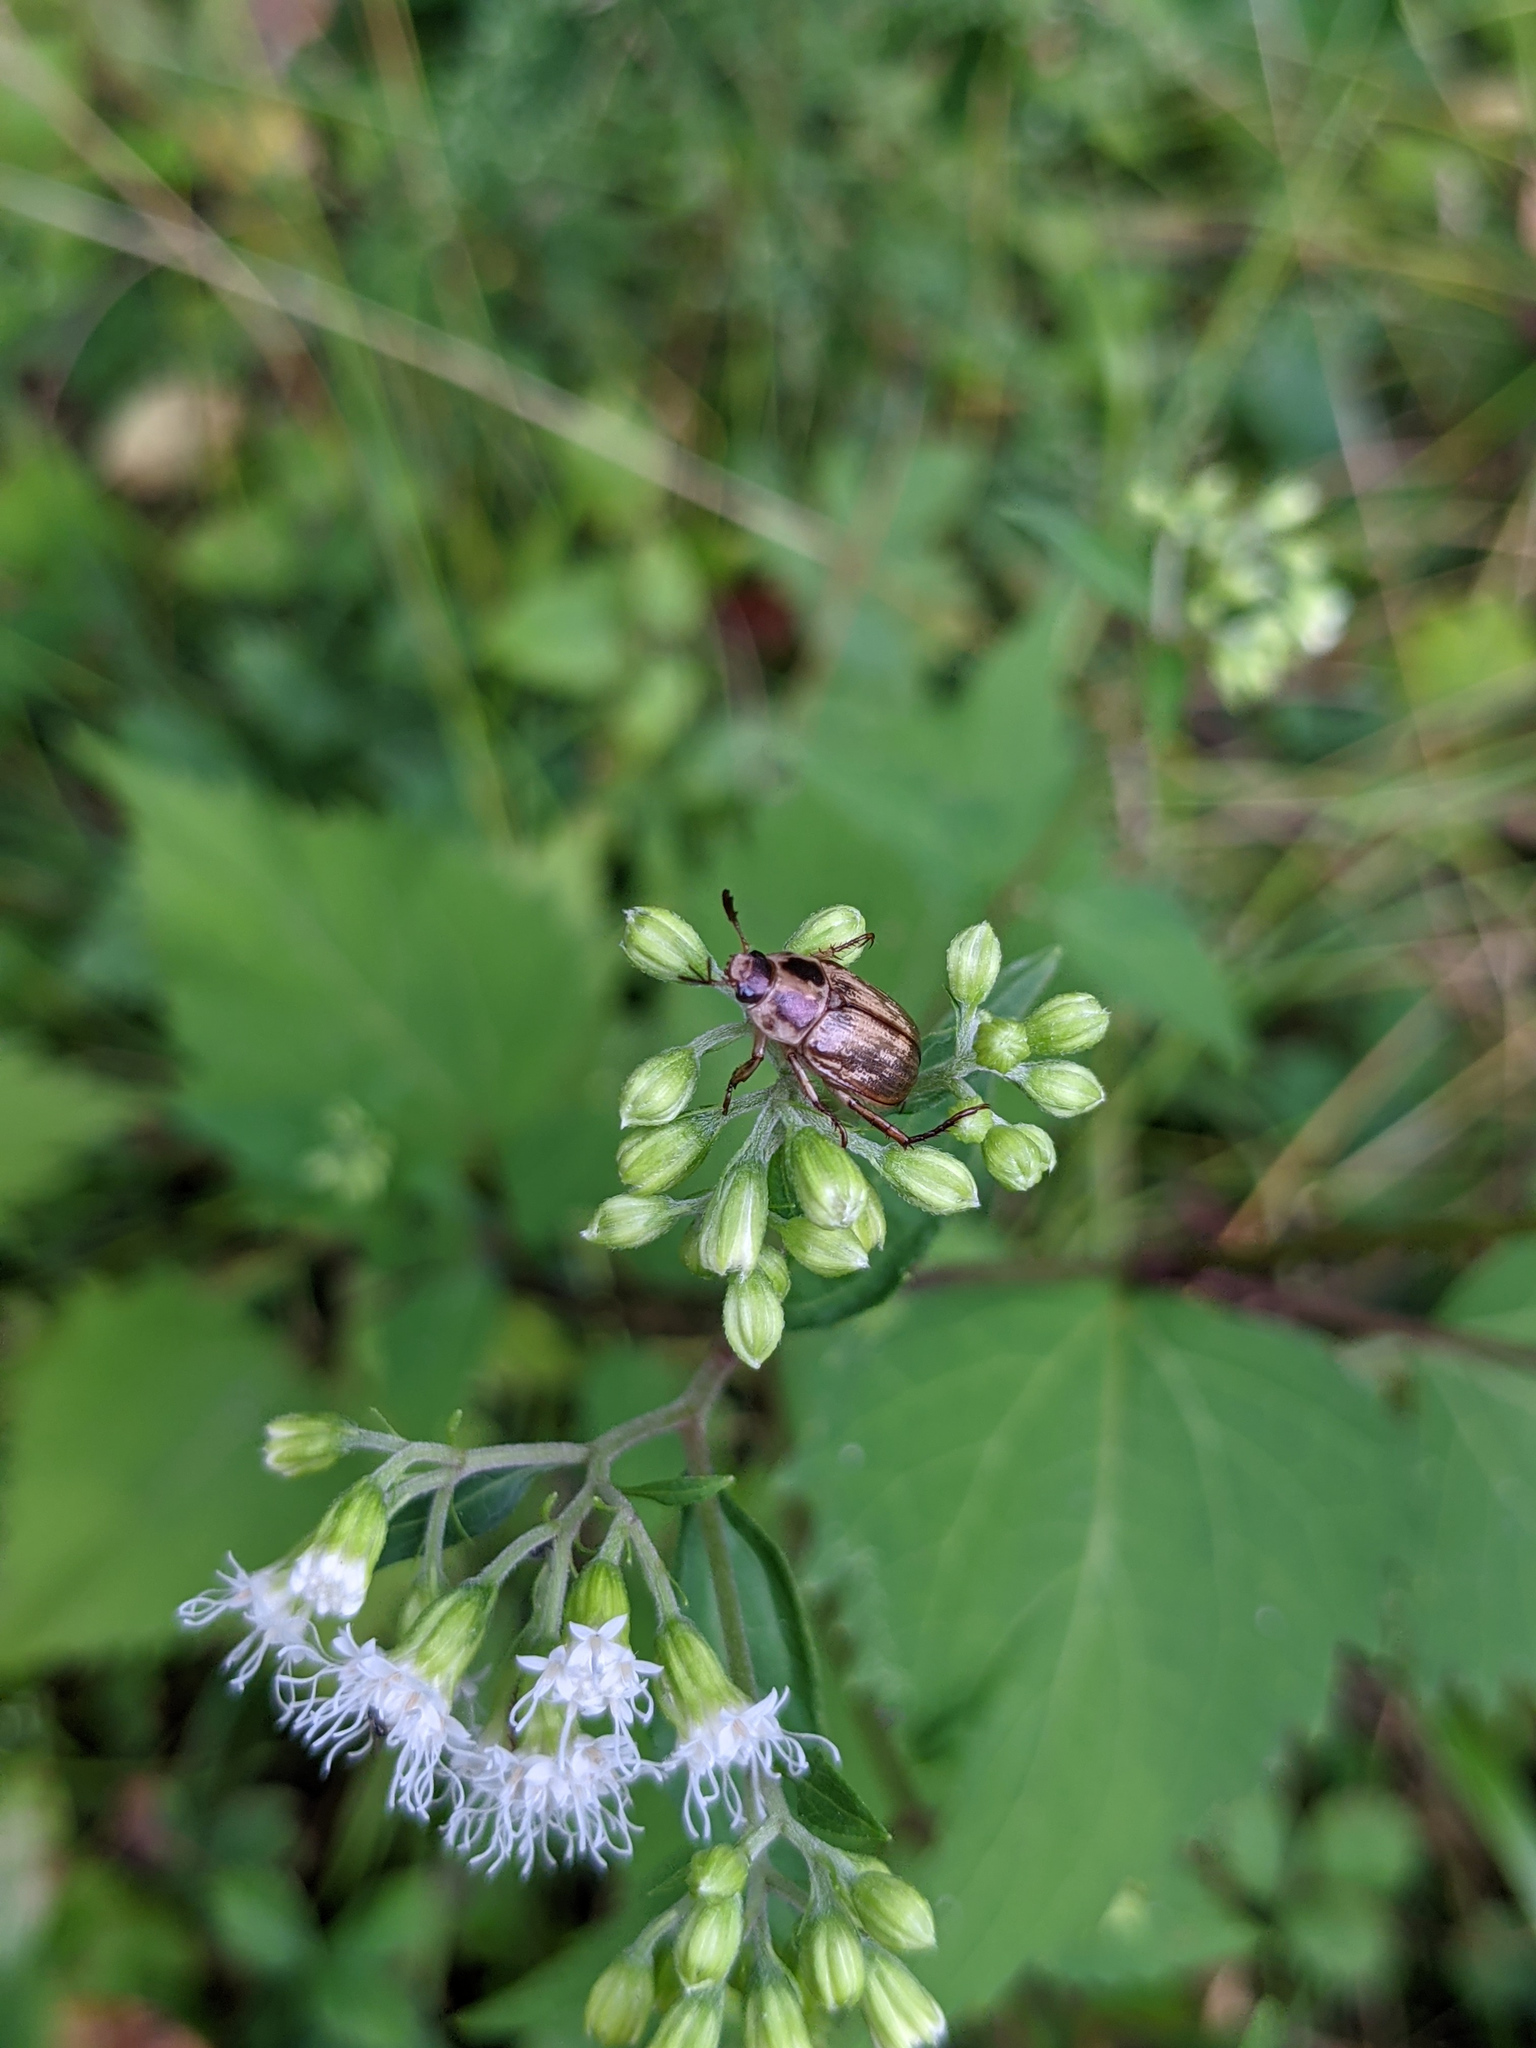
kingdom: Animalia
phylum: Arthropoda
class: Insecta
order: Coleoptera
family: Scarabaeidae
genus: Exomala
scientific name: Exomala orientalis
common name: Oriental beetle
